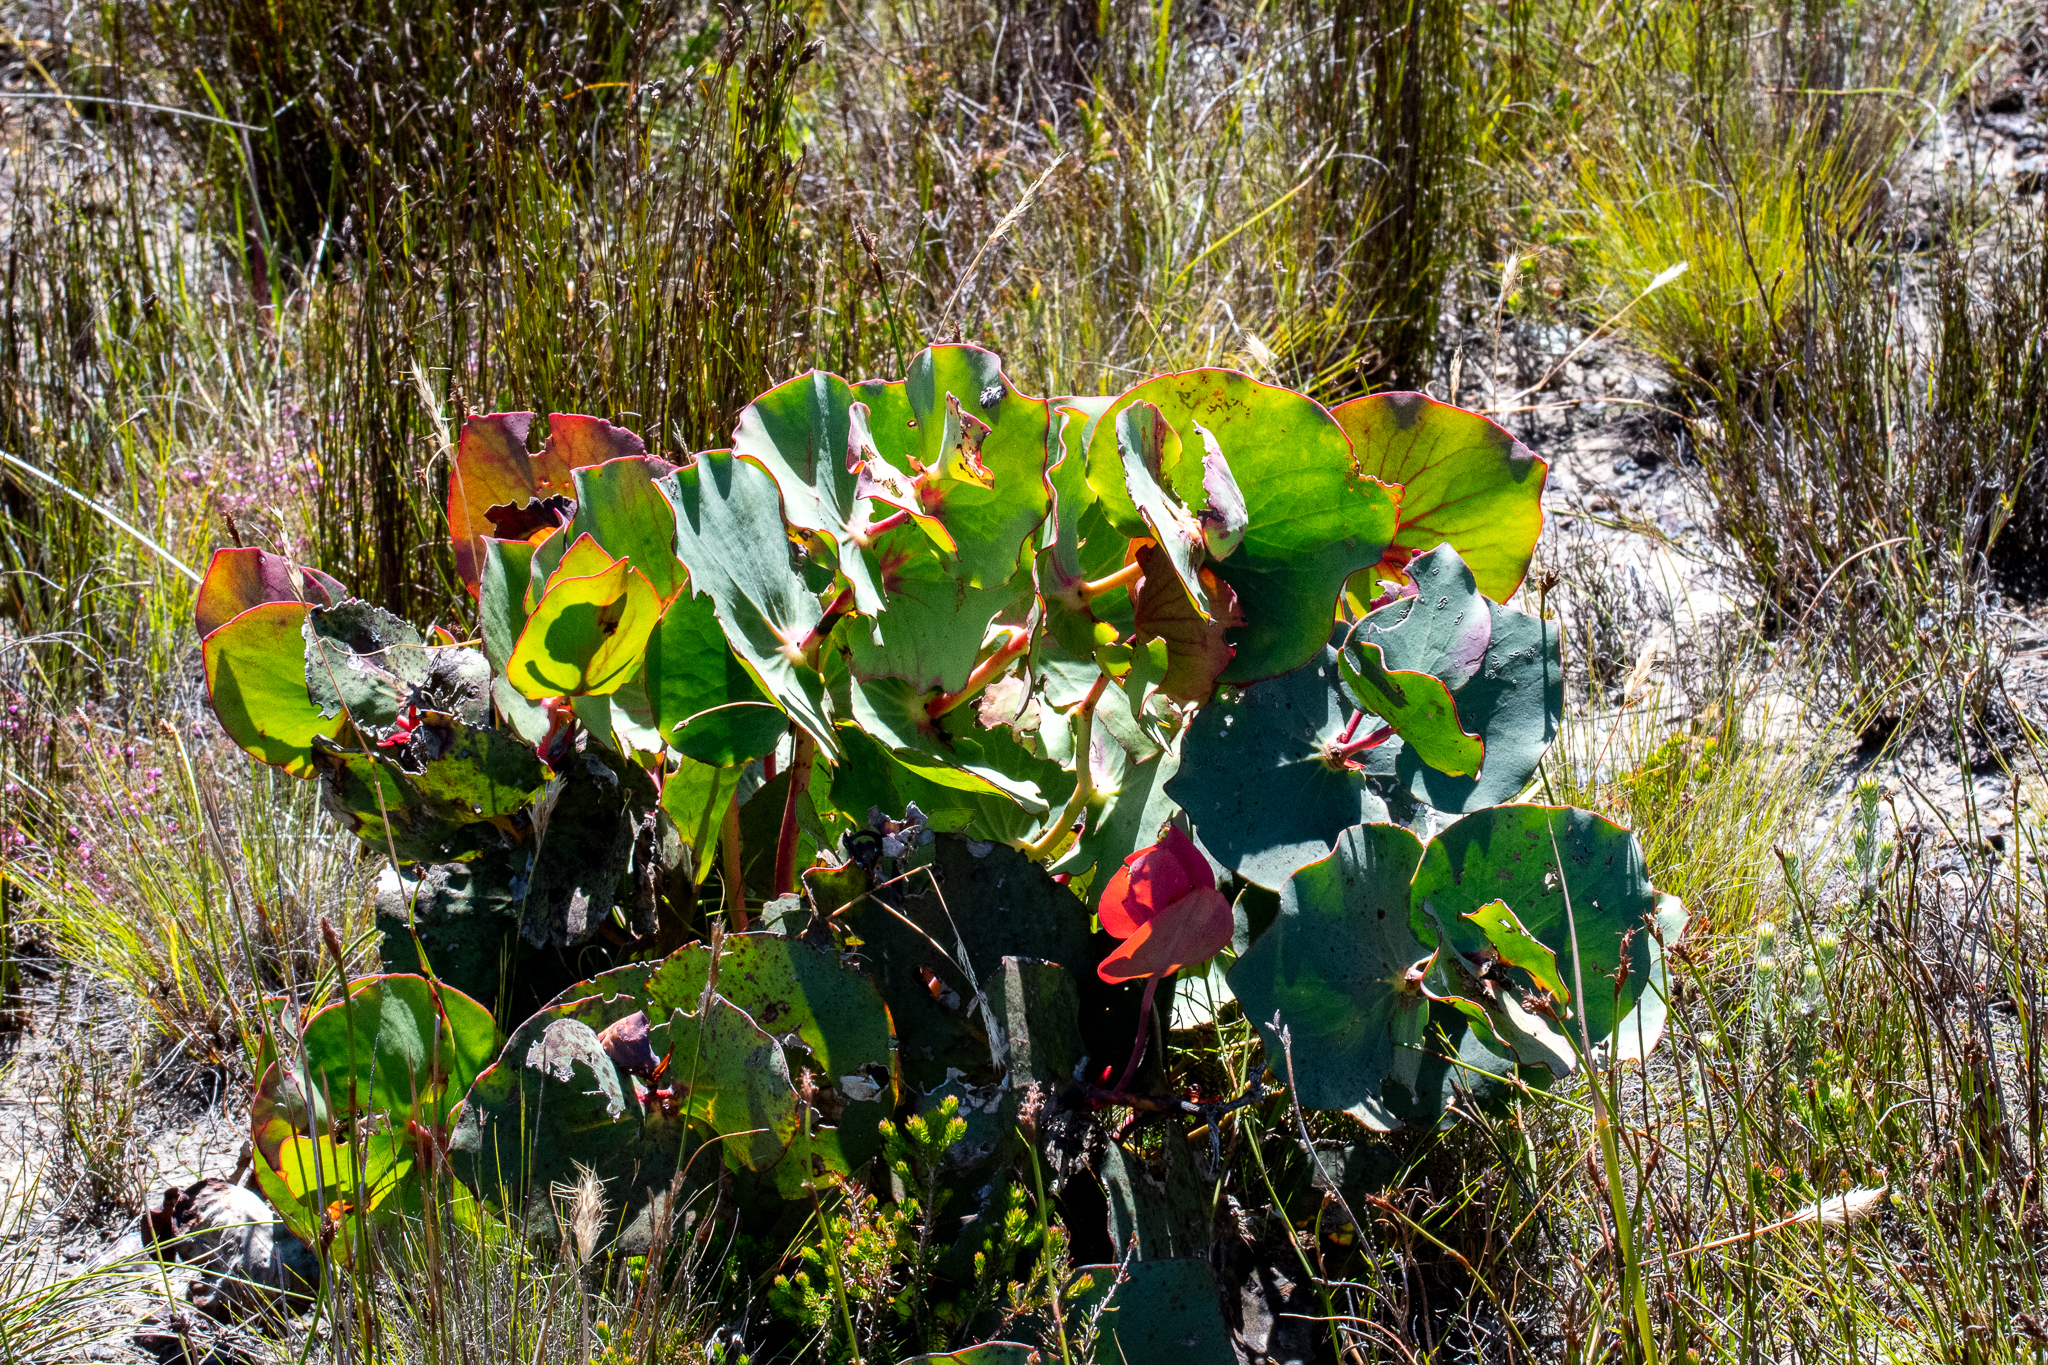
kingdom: Plantae
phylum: Tracheophyta
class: Magnoliopsida
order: Proteales
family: Proteaceae
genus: Protea
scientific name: Protea cordata
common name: Heart-leaf sugarbush
